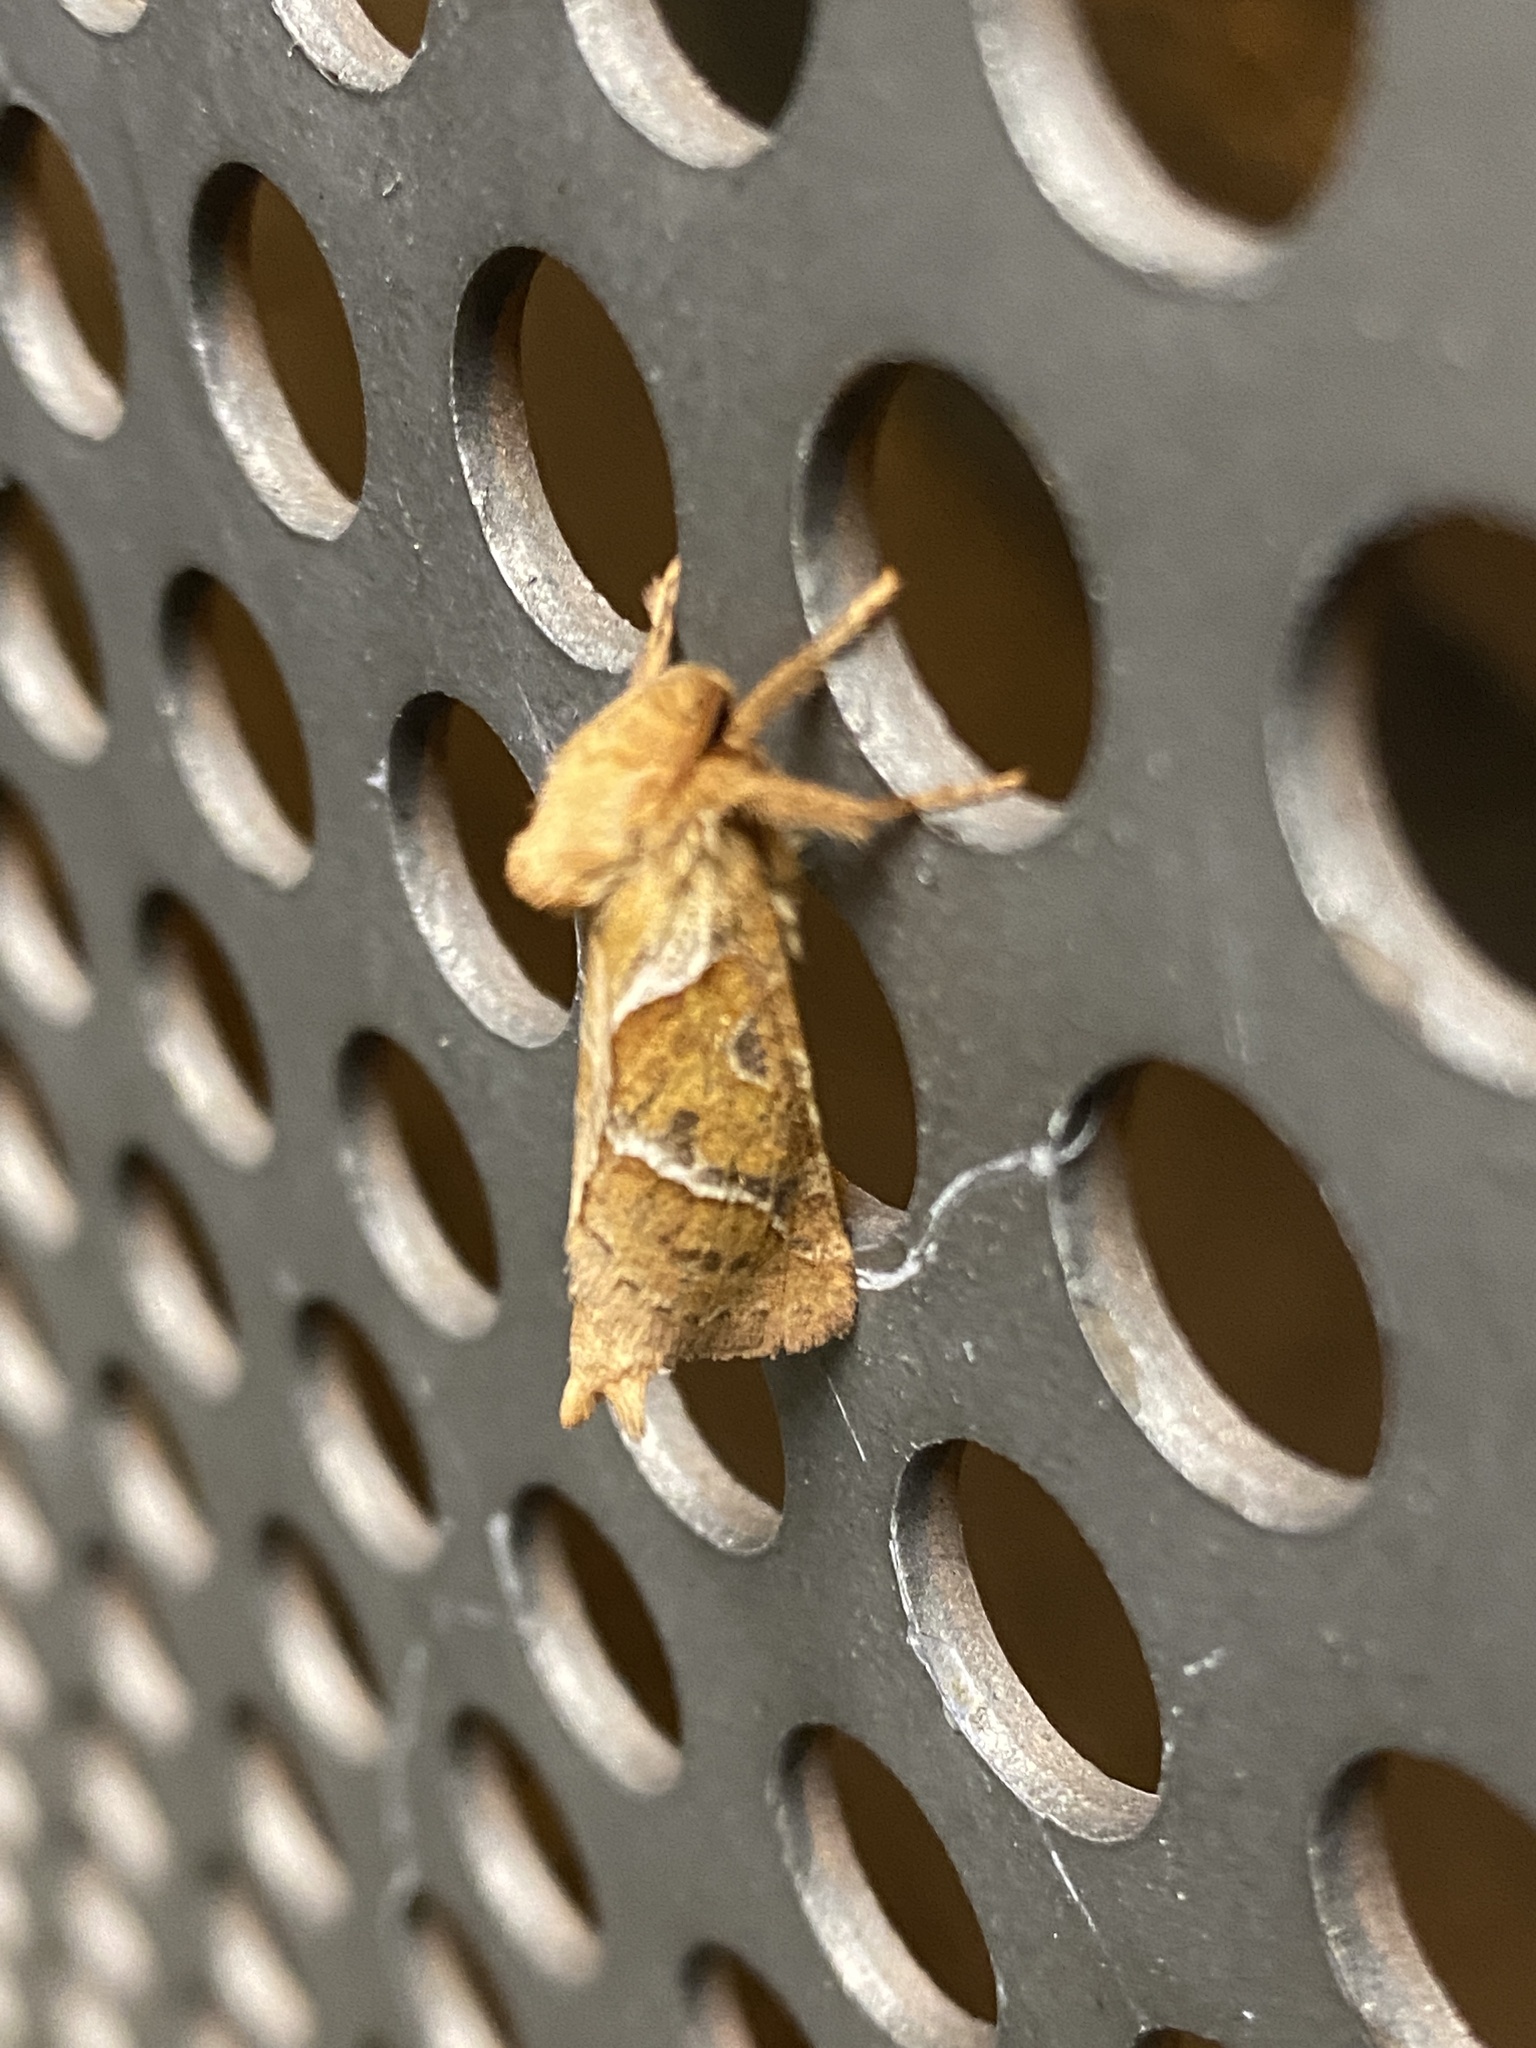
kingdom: Animalia
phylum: Arthropoda
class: Insecta
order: Lepidoptera
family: Hepialidae
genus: Triodia
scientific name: Triodia sylvina
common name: Orange swift
